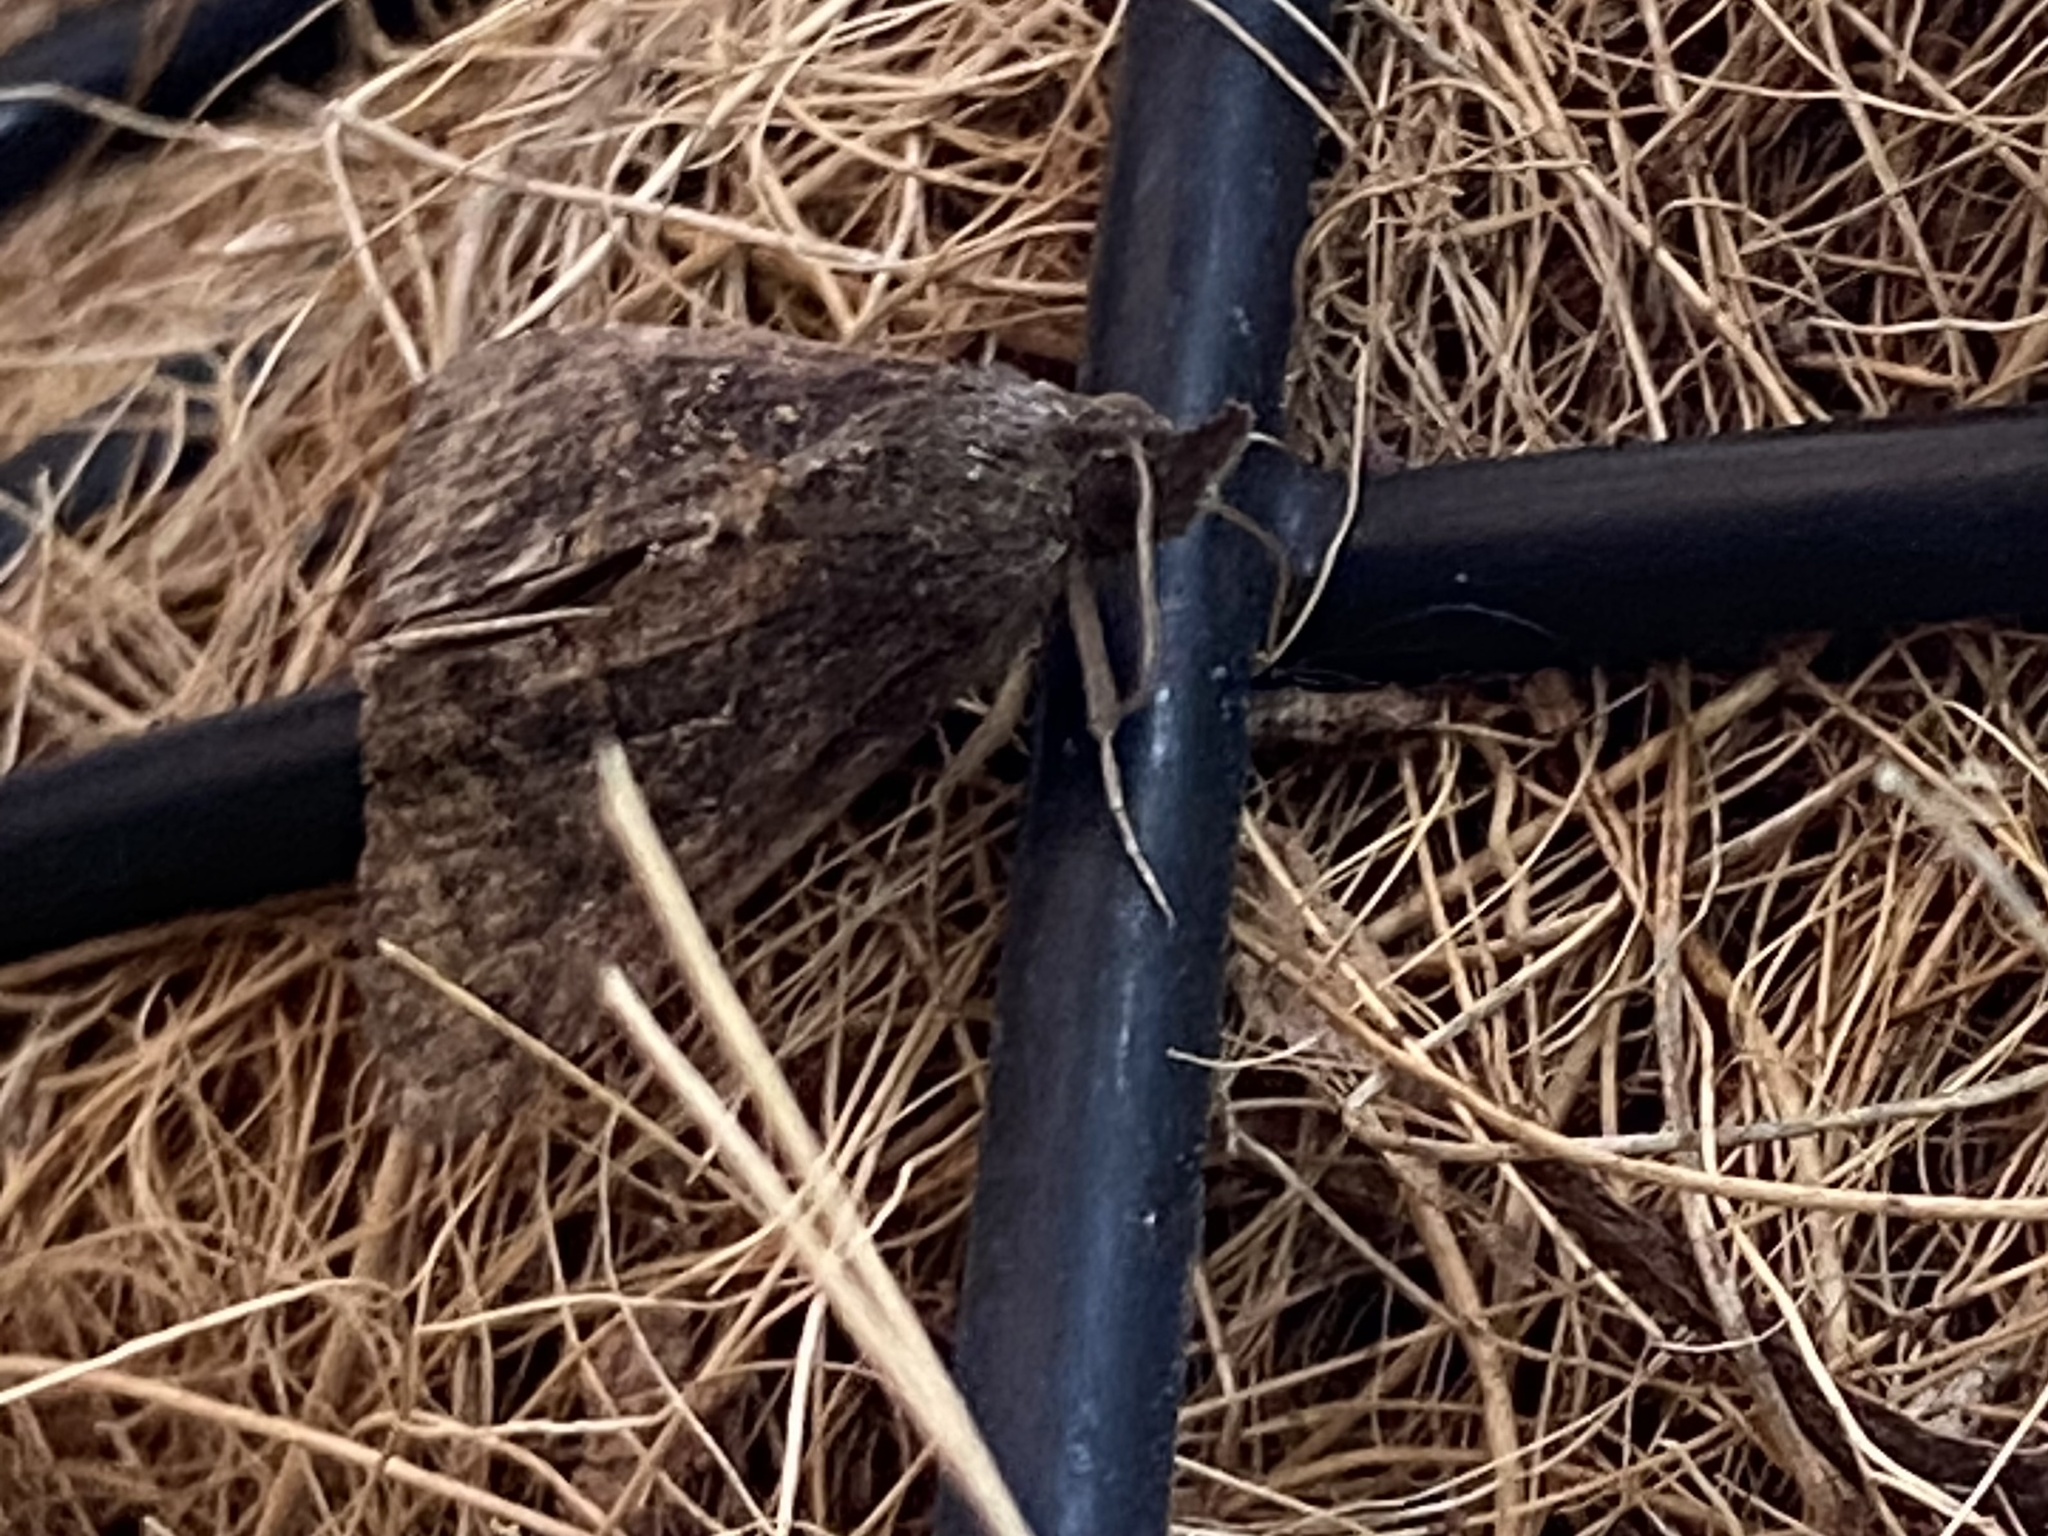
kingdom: Animalia
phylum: Arthropoda
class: Insecta
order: Lepidoptera
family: Erebidae
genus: Hypena
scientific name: Hypena scabra
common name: Green cloverworm
